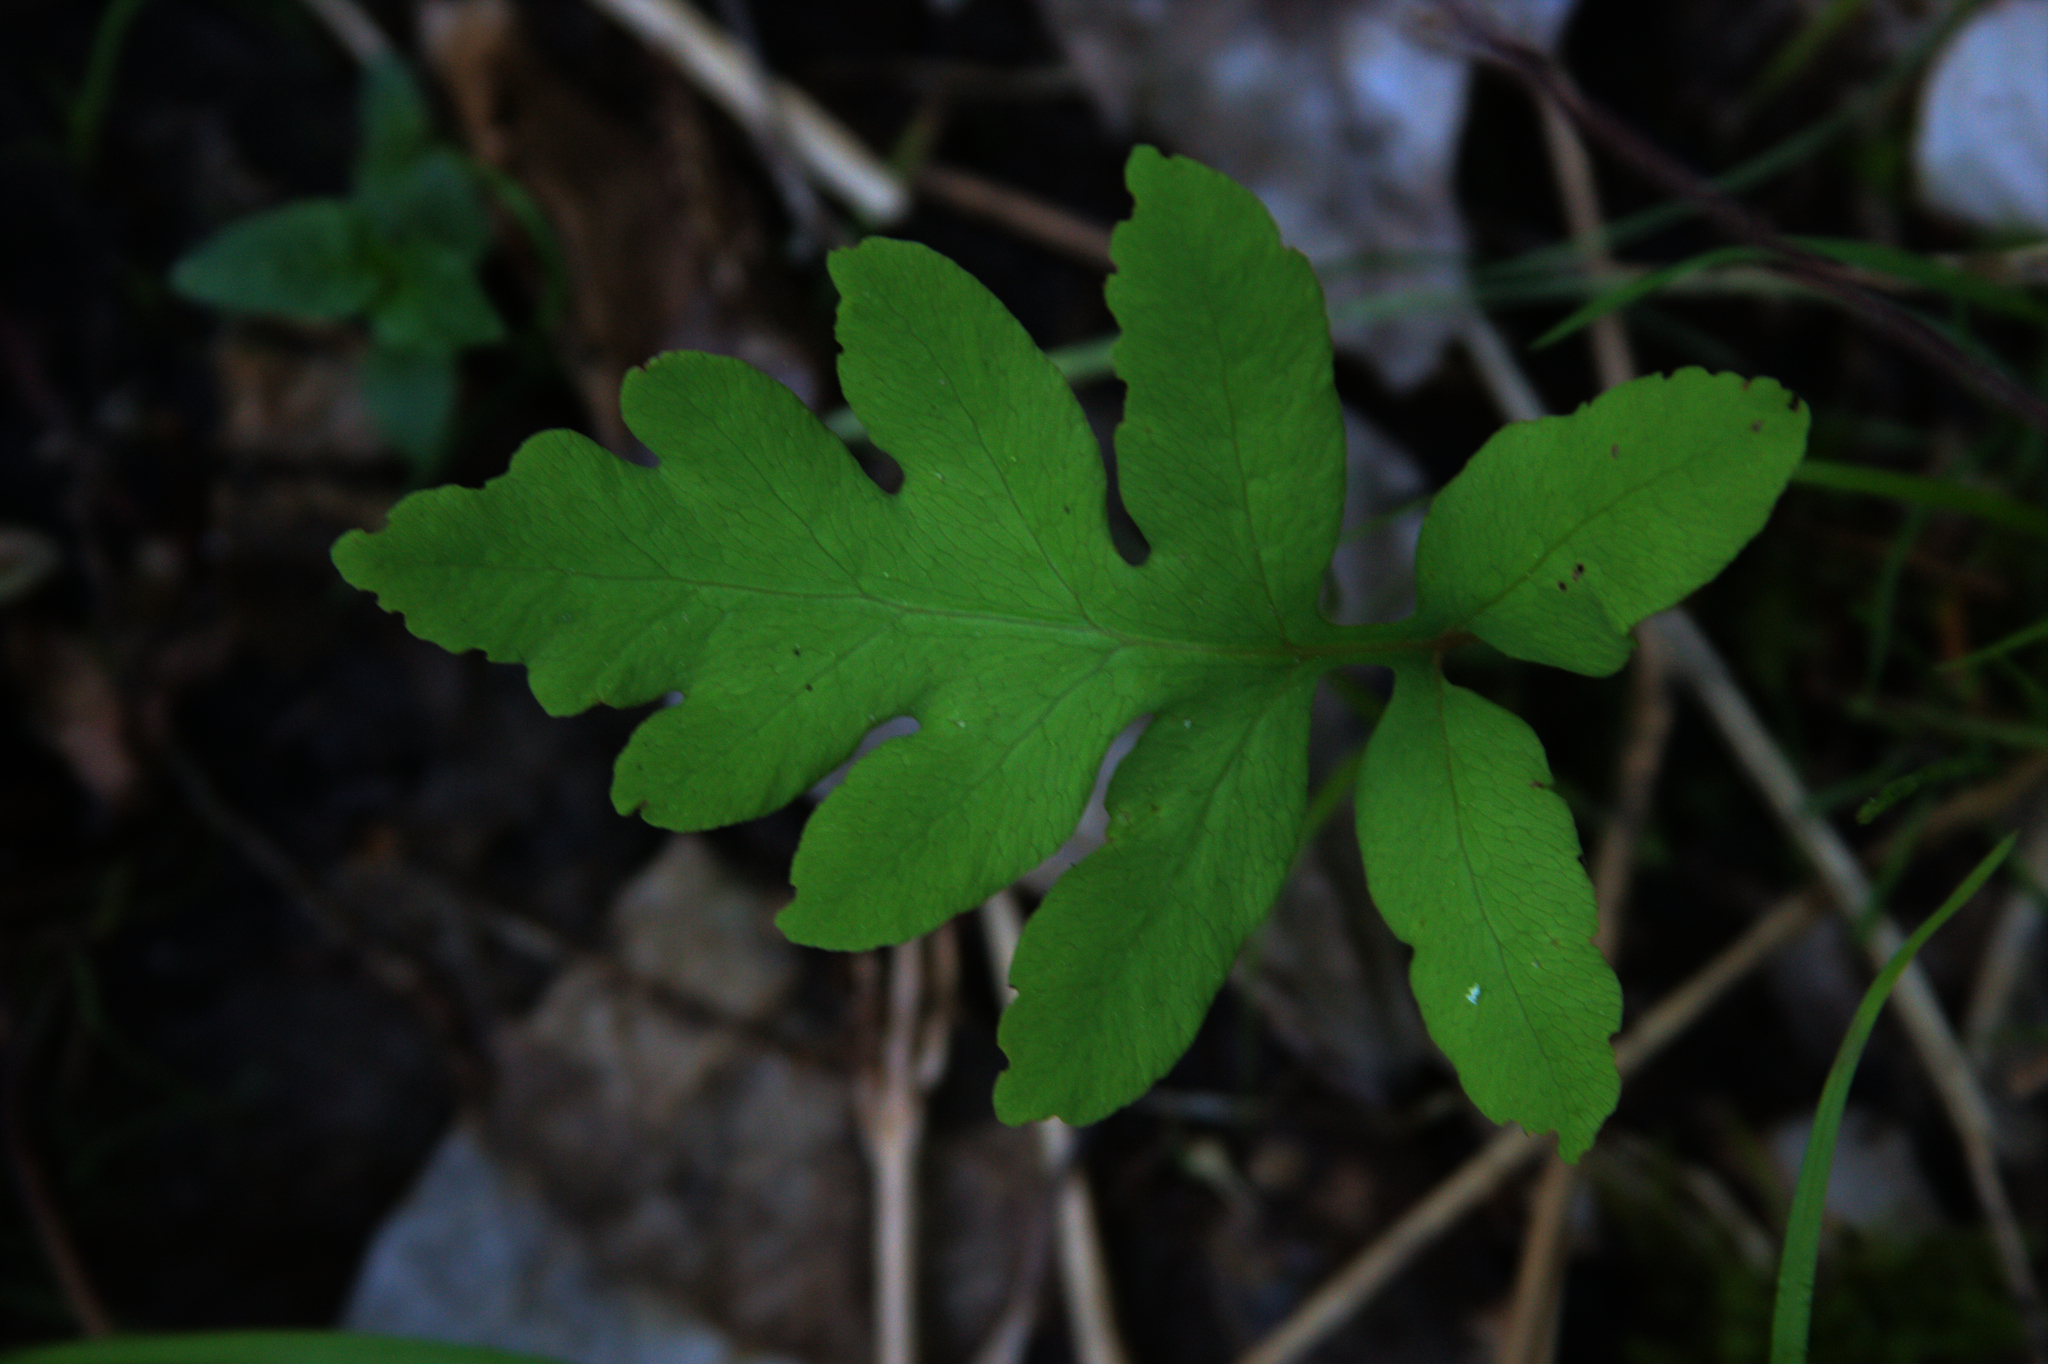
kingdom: Plantae
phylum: Tracheophyta
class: Polypodiopsida
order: Polypodiales
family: Onocleaceae
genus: Onoclea
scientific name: Onoclea sensibilis
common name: Sensitive fern
